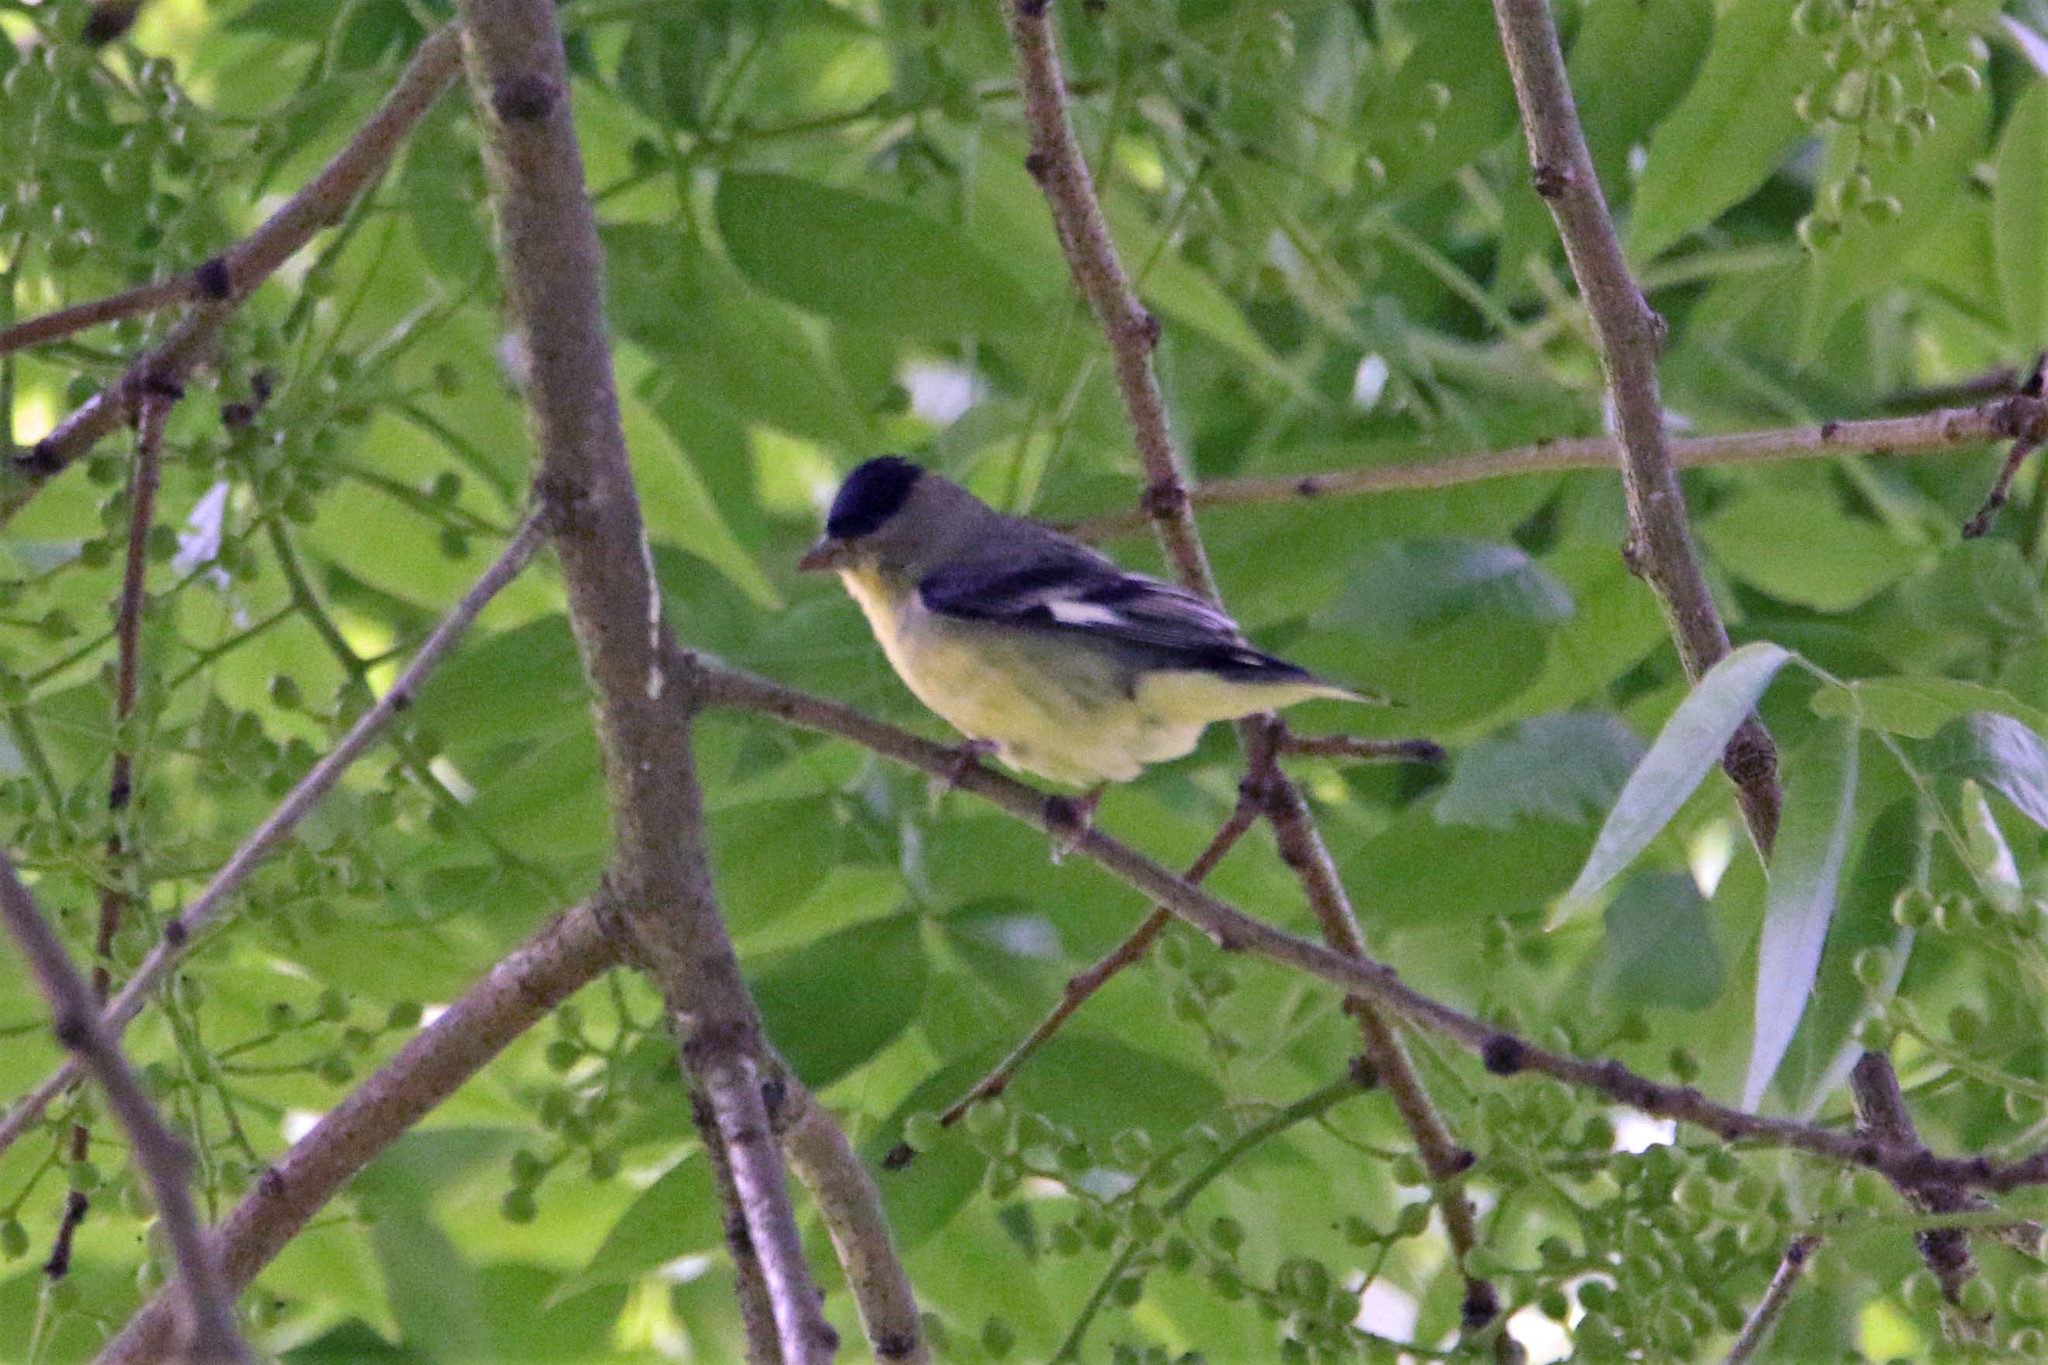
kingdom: Animalia
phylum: Chordata
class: Aves
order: Passeriformes
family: Fringillidae
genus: Spinus
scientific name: Spinus psaltria
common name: Lesser goldfinch
